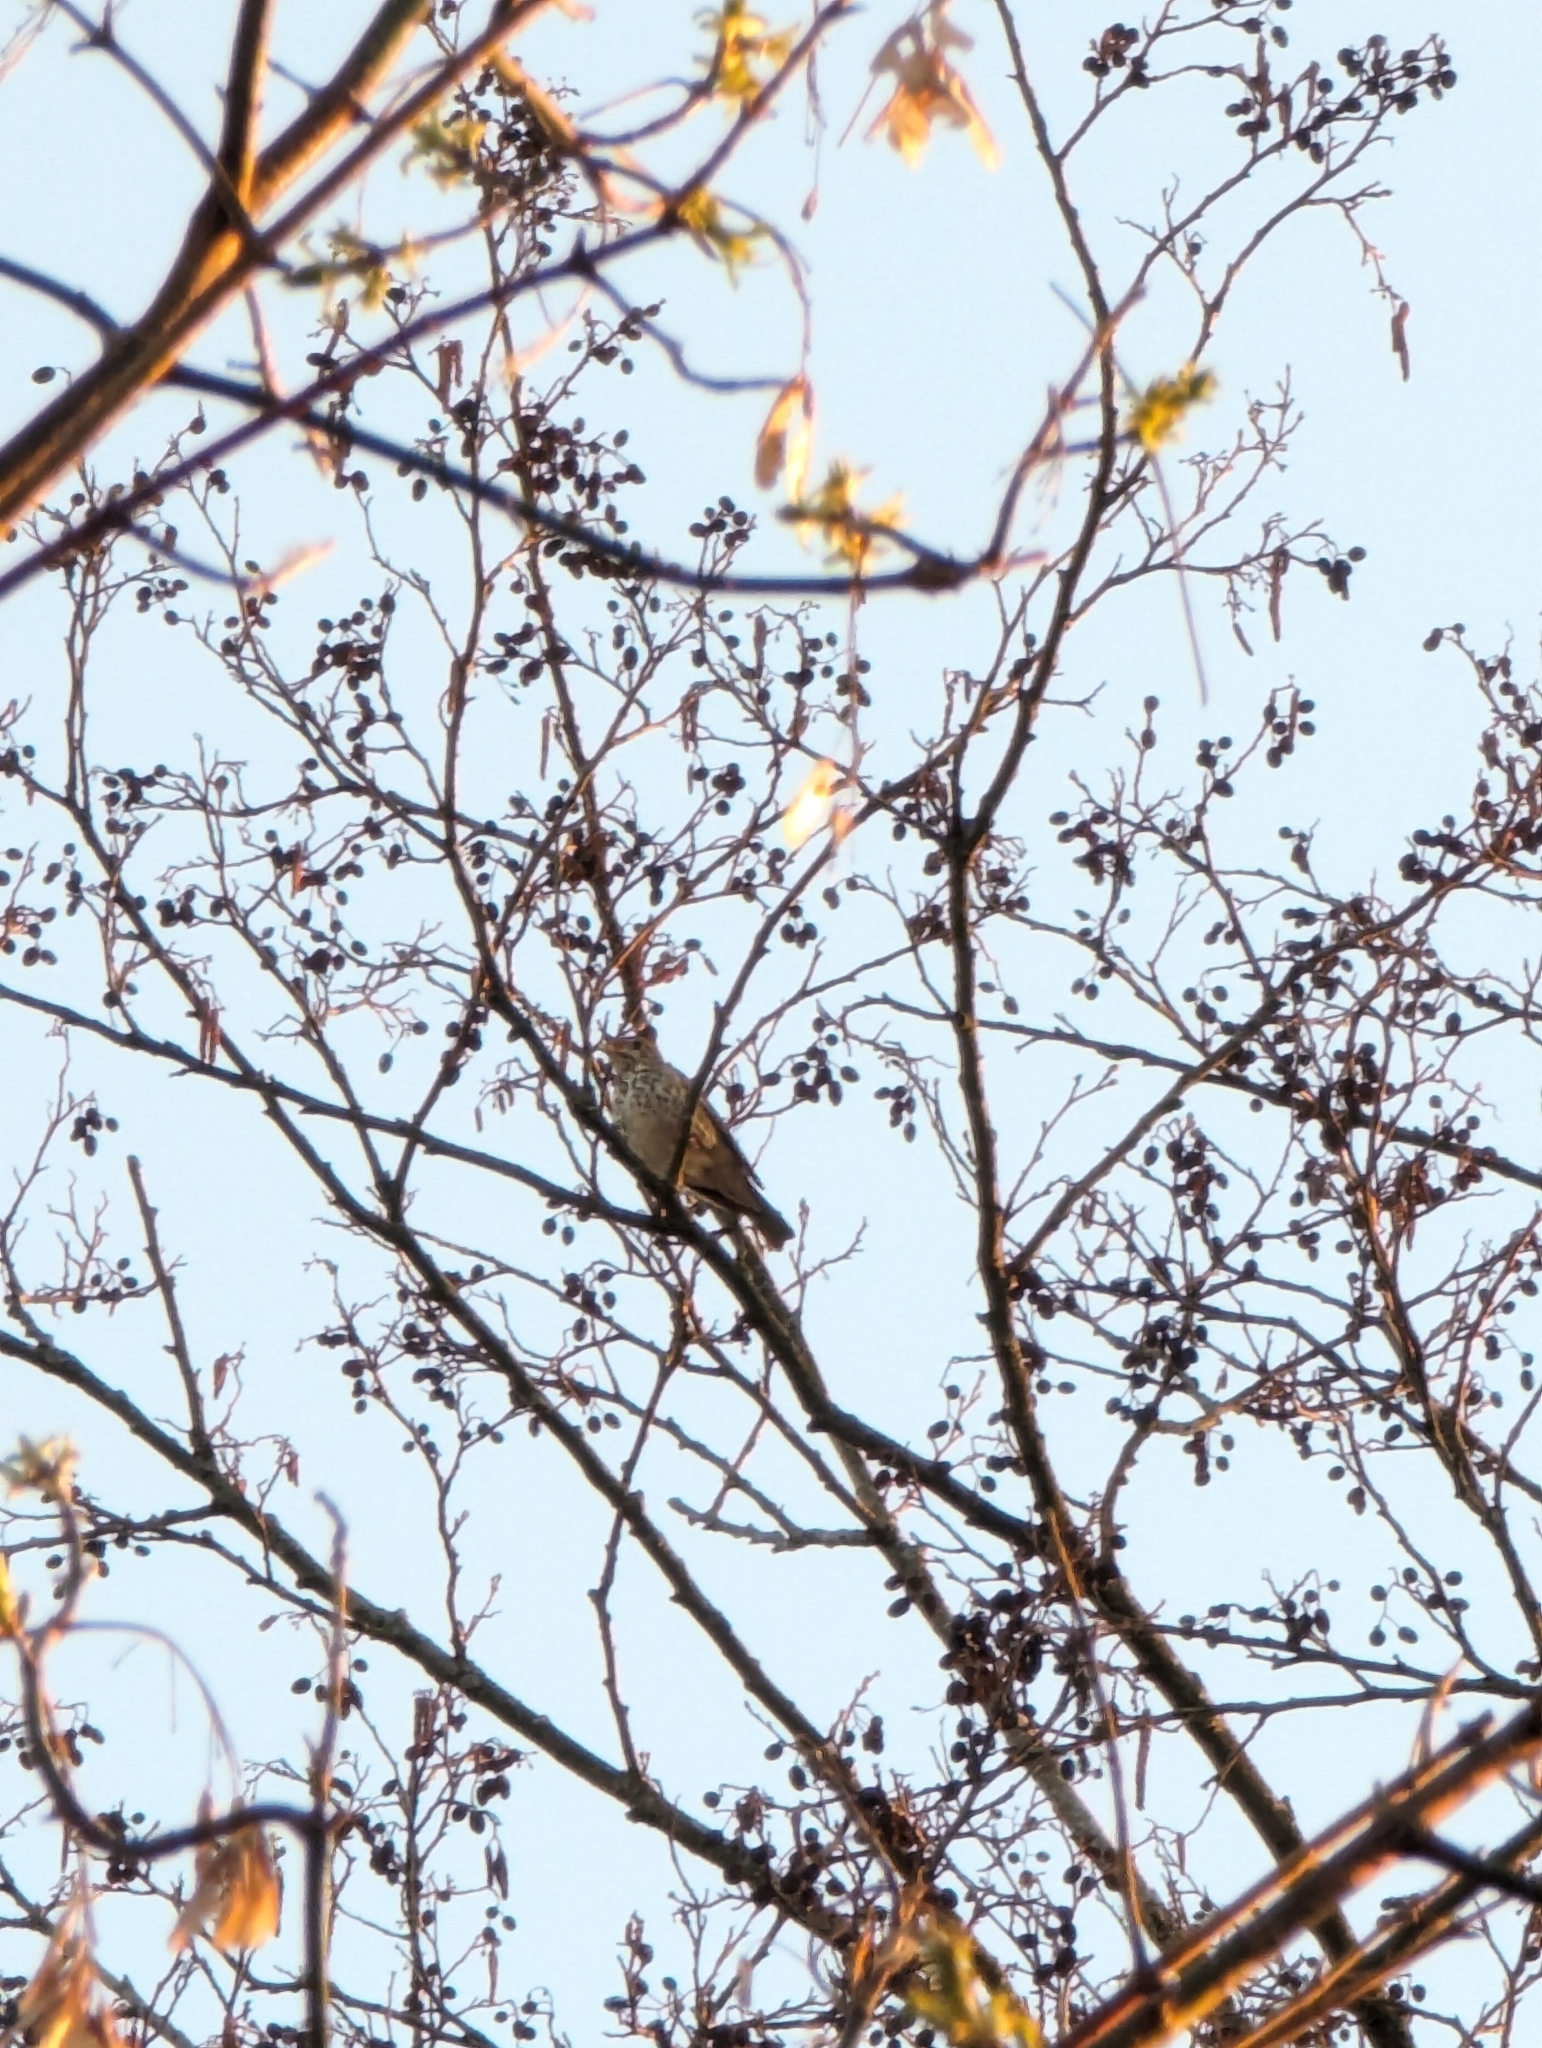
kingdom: Animalia
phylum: Chordata
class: Aves
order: Passeriformes
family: Turdidae
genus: Turdus
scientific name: Turdus philomelos
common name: Song thrush
